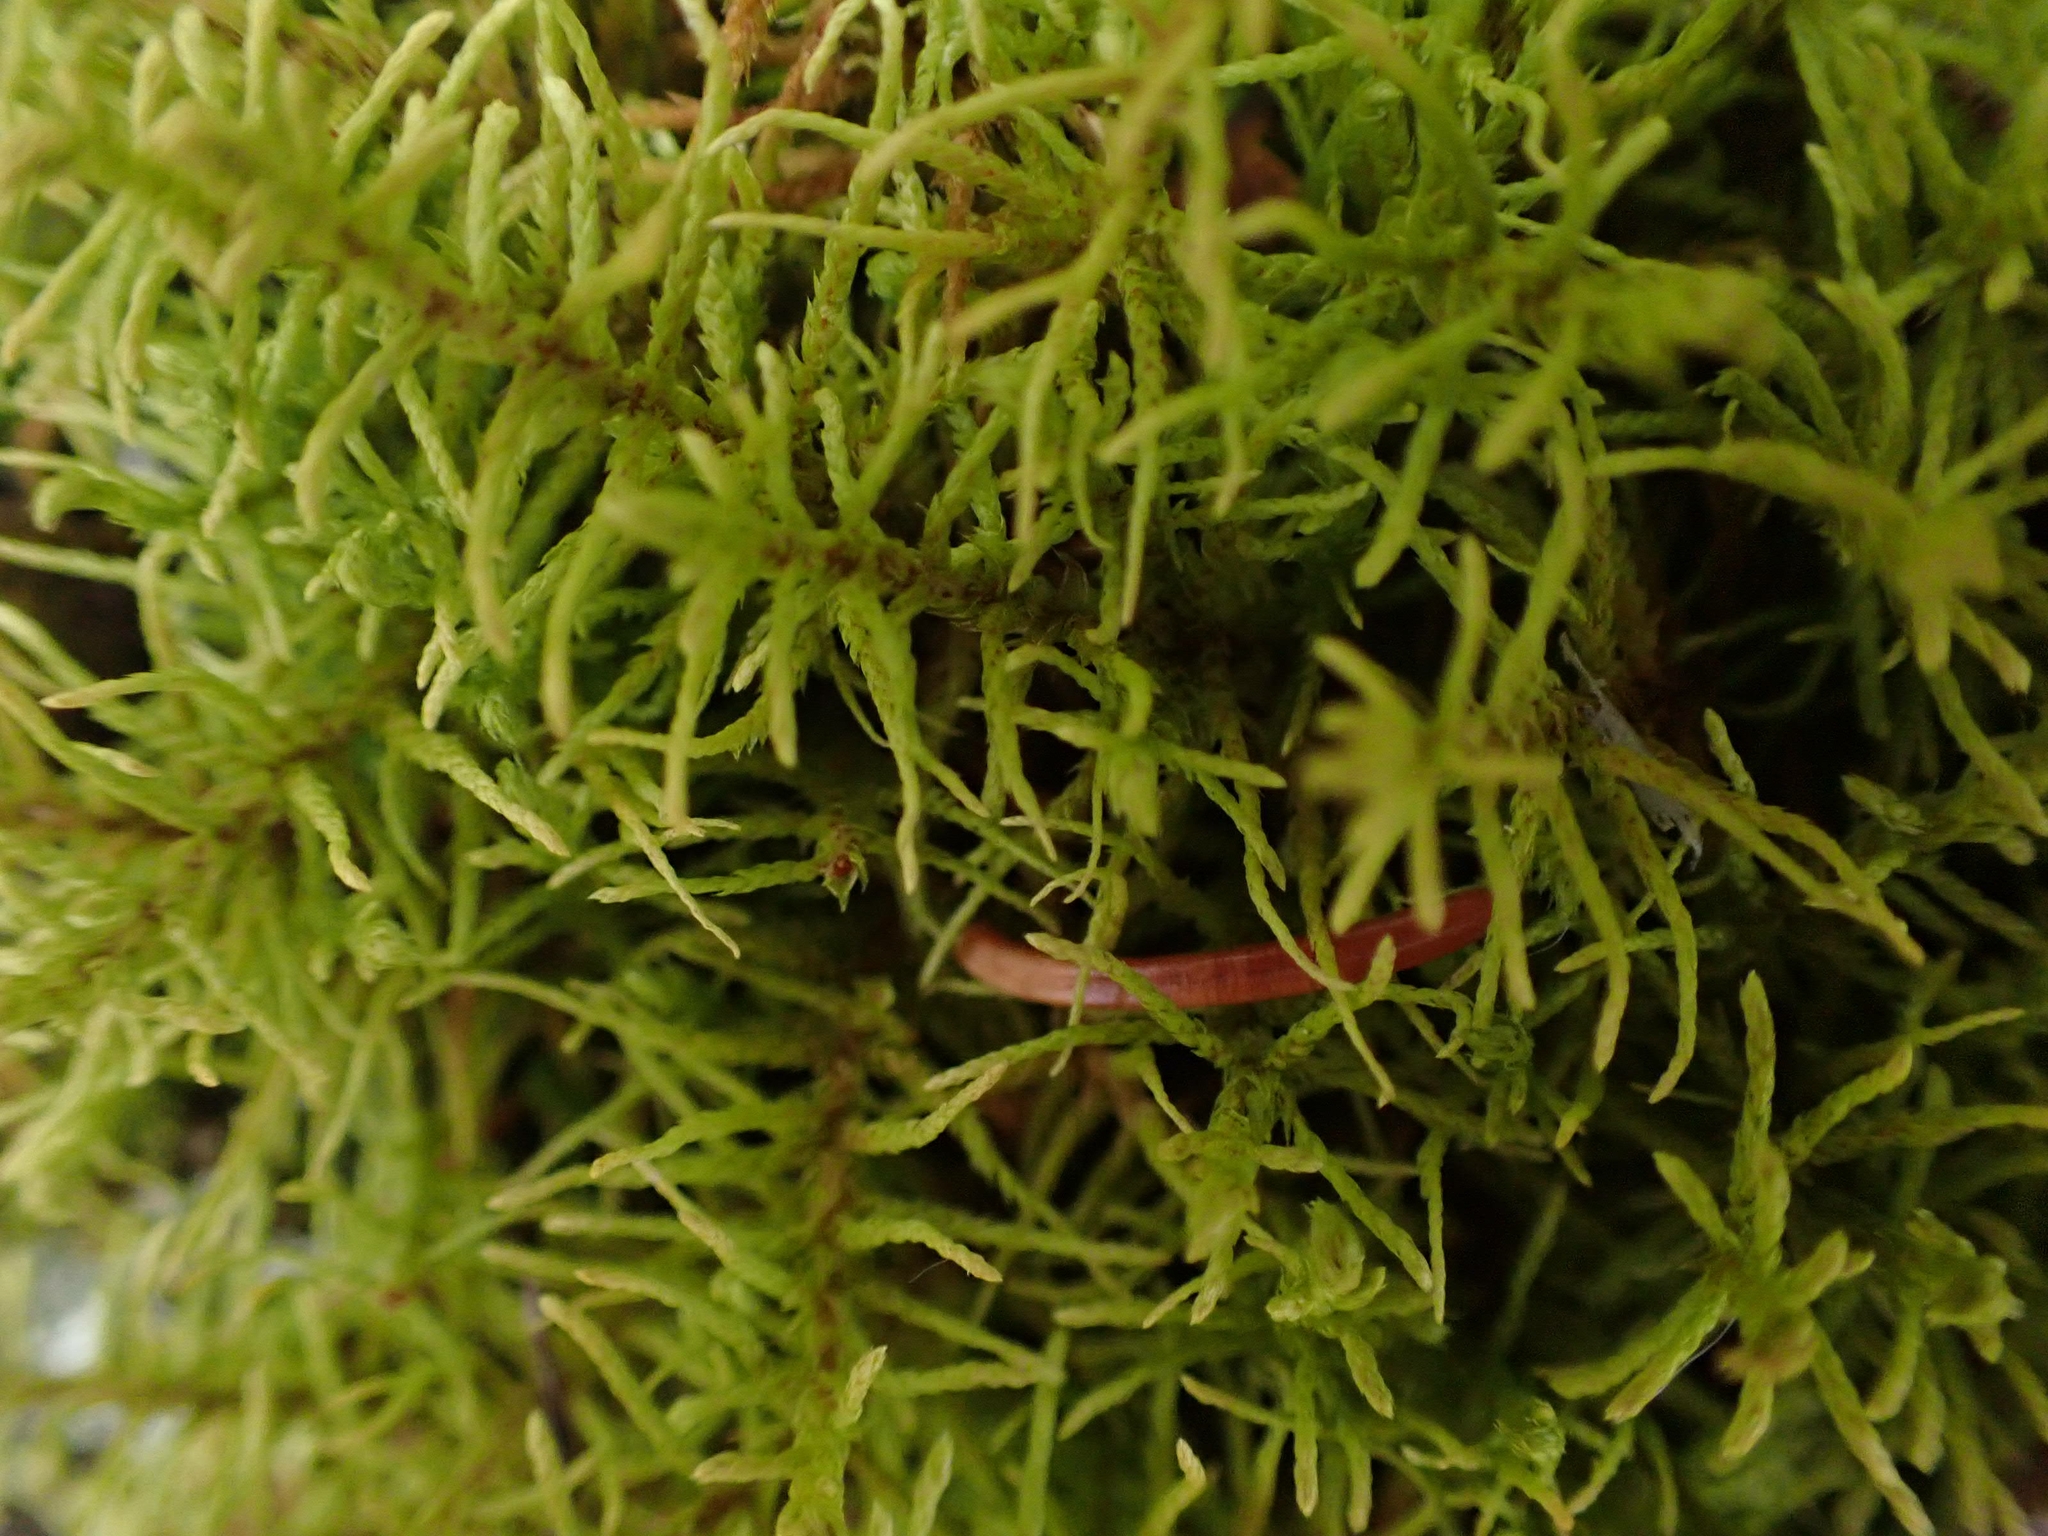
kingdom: Plantae
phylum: Bryophyta
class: Bryopsida
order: Hypnales
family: Thuidiaceae
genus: Abietinella
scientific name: Abietinella abietina
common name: Wiry fern moss
